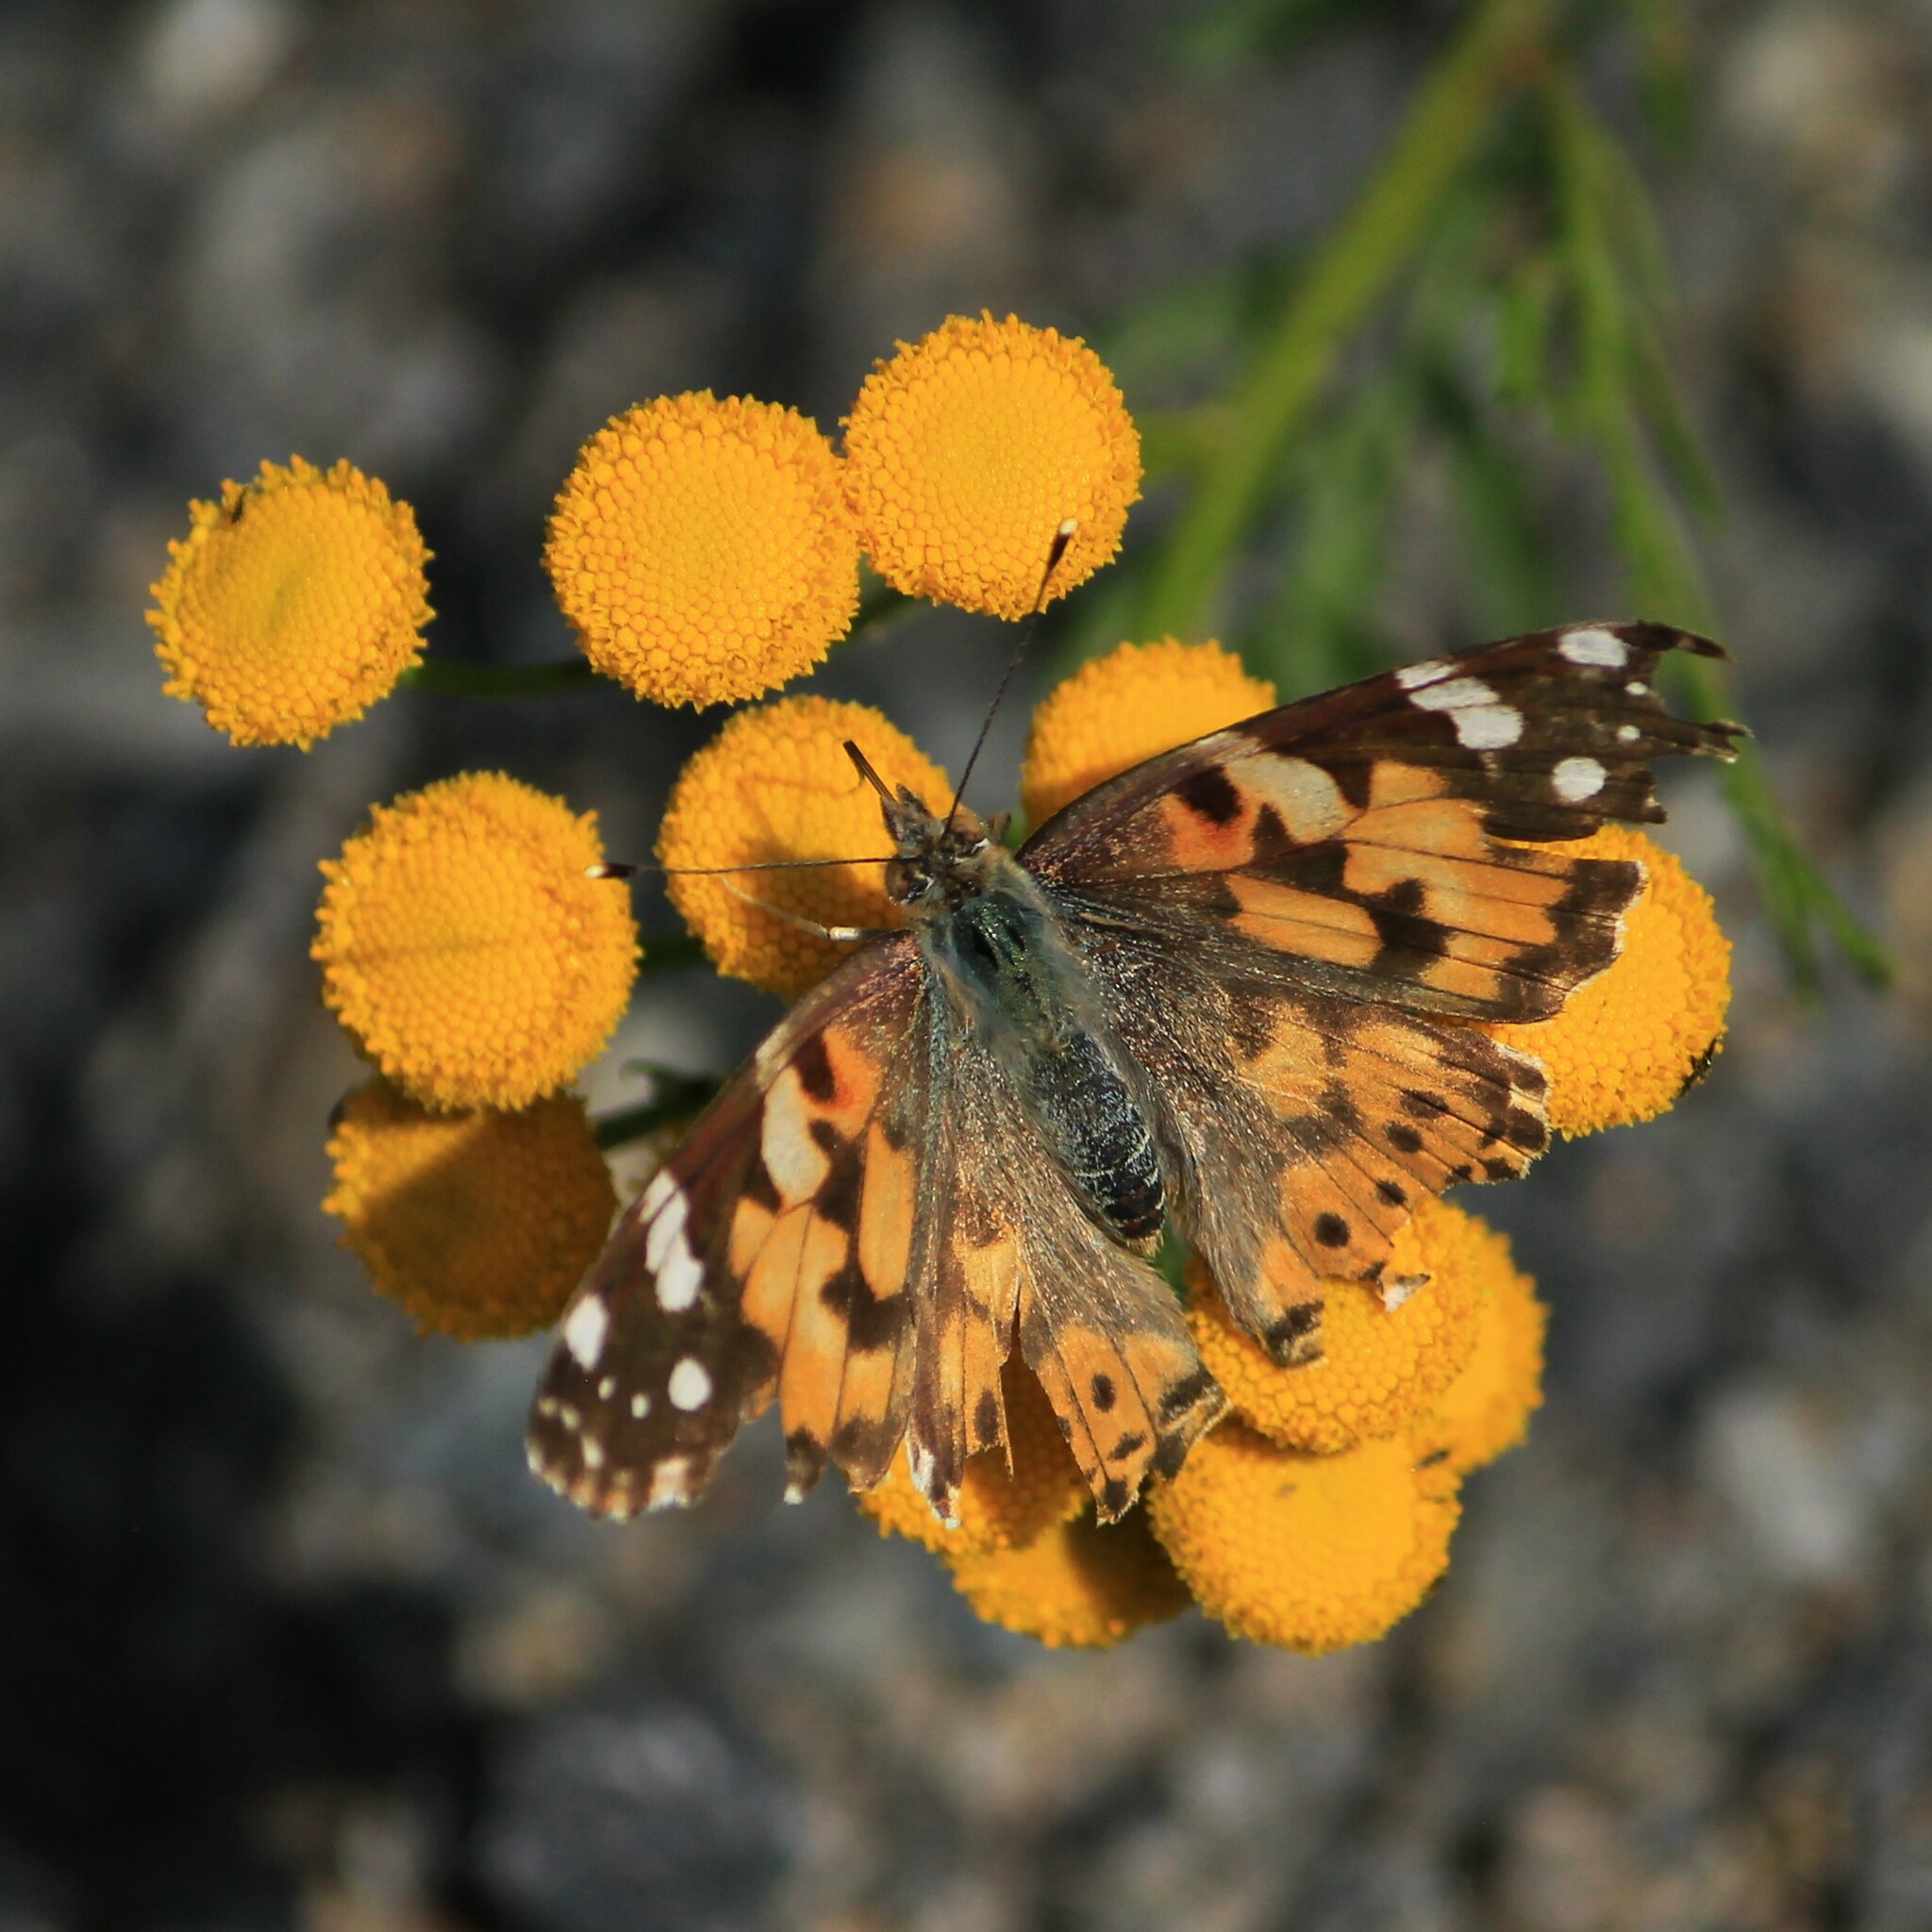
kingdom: Animalia
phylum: Arthropoda
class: Insecta
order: Lepidoptera
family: Nymphalidae
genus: Vanessa
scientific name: Vanessa cardui
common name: Painted lady
